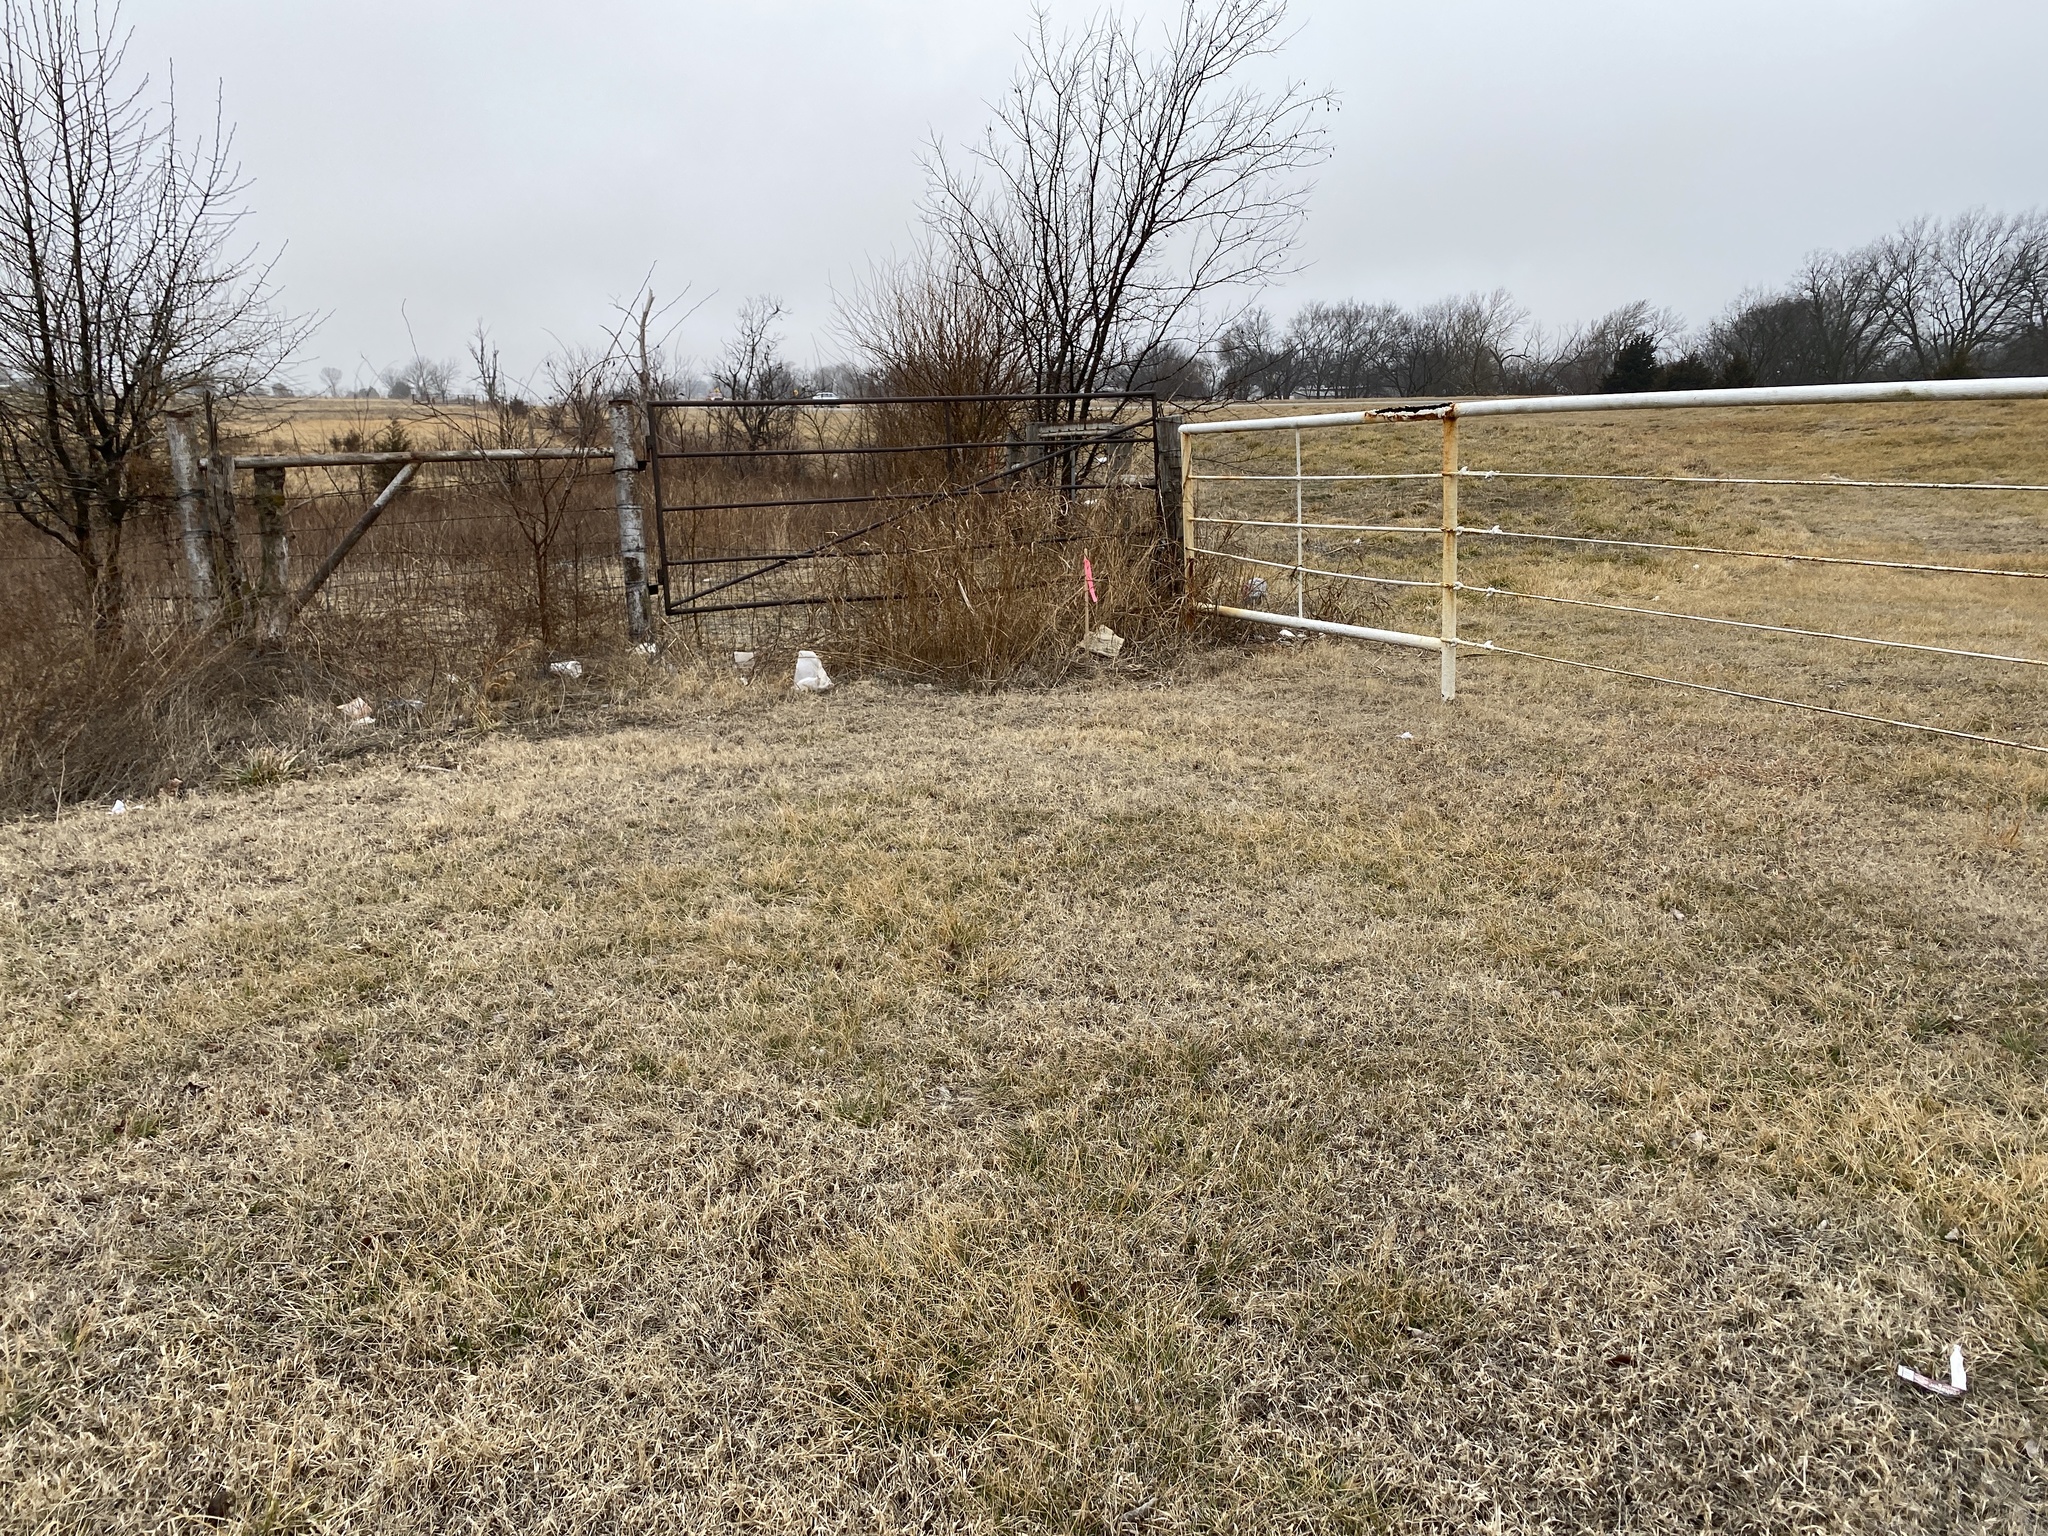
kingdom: Plantae
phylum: Tracheophyta
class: Liliopsida
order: Poales
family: Poaceae
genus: Sorghum
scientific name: Sorghum halepense
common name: Johnson-grass
